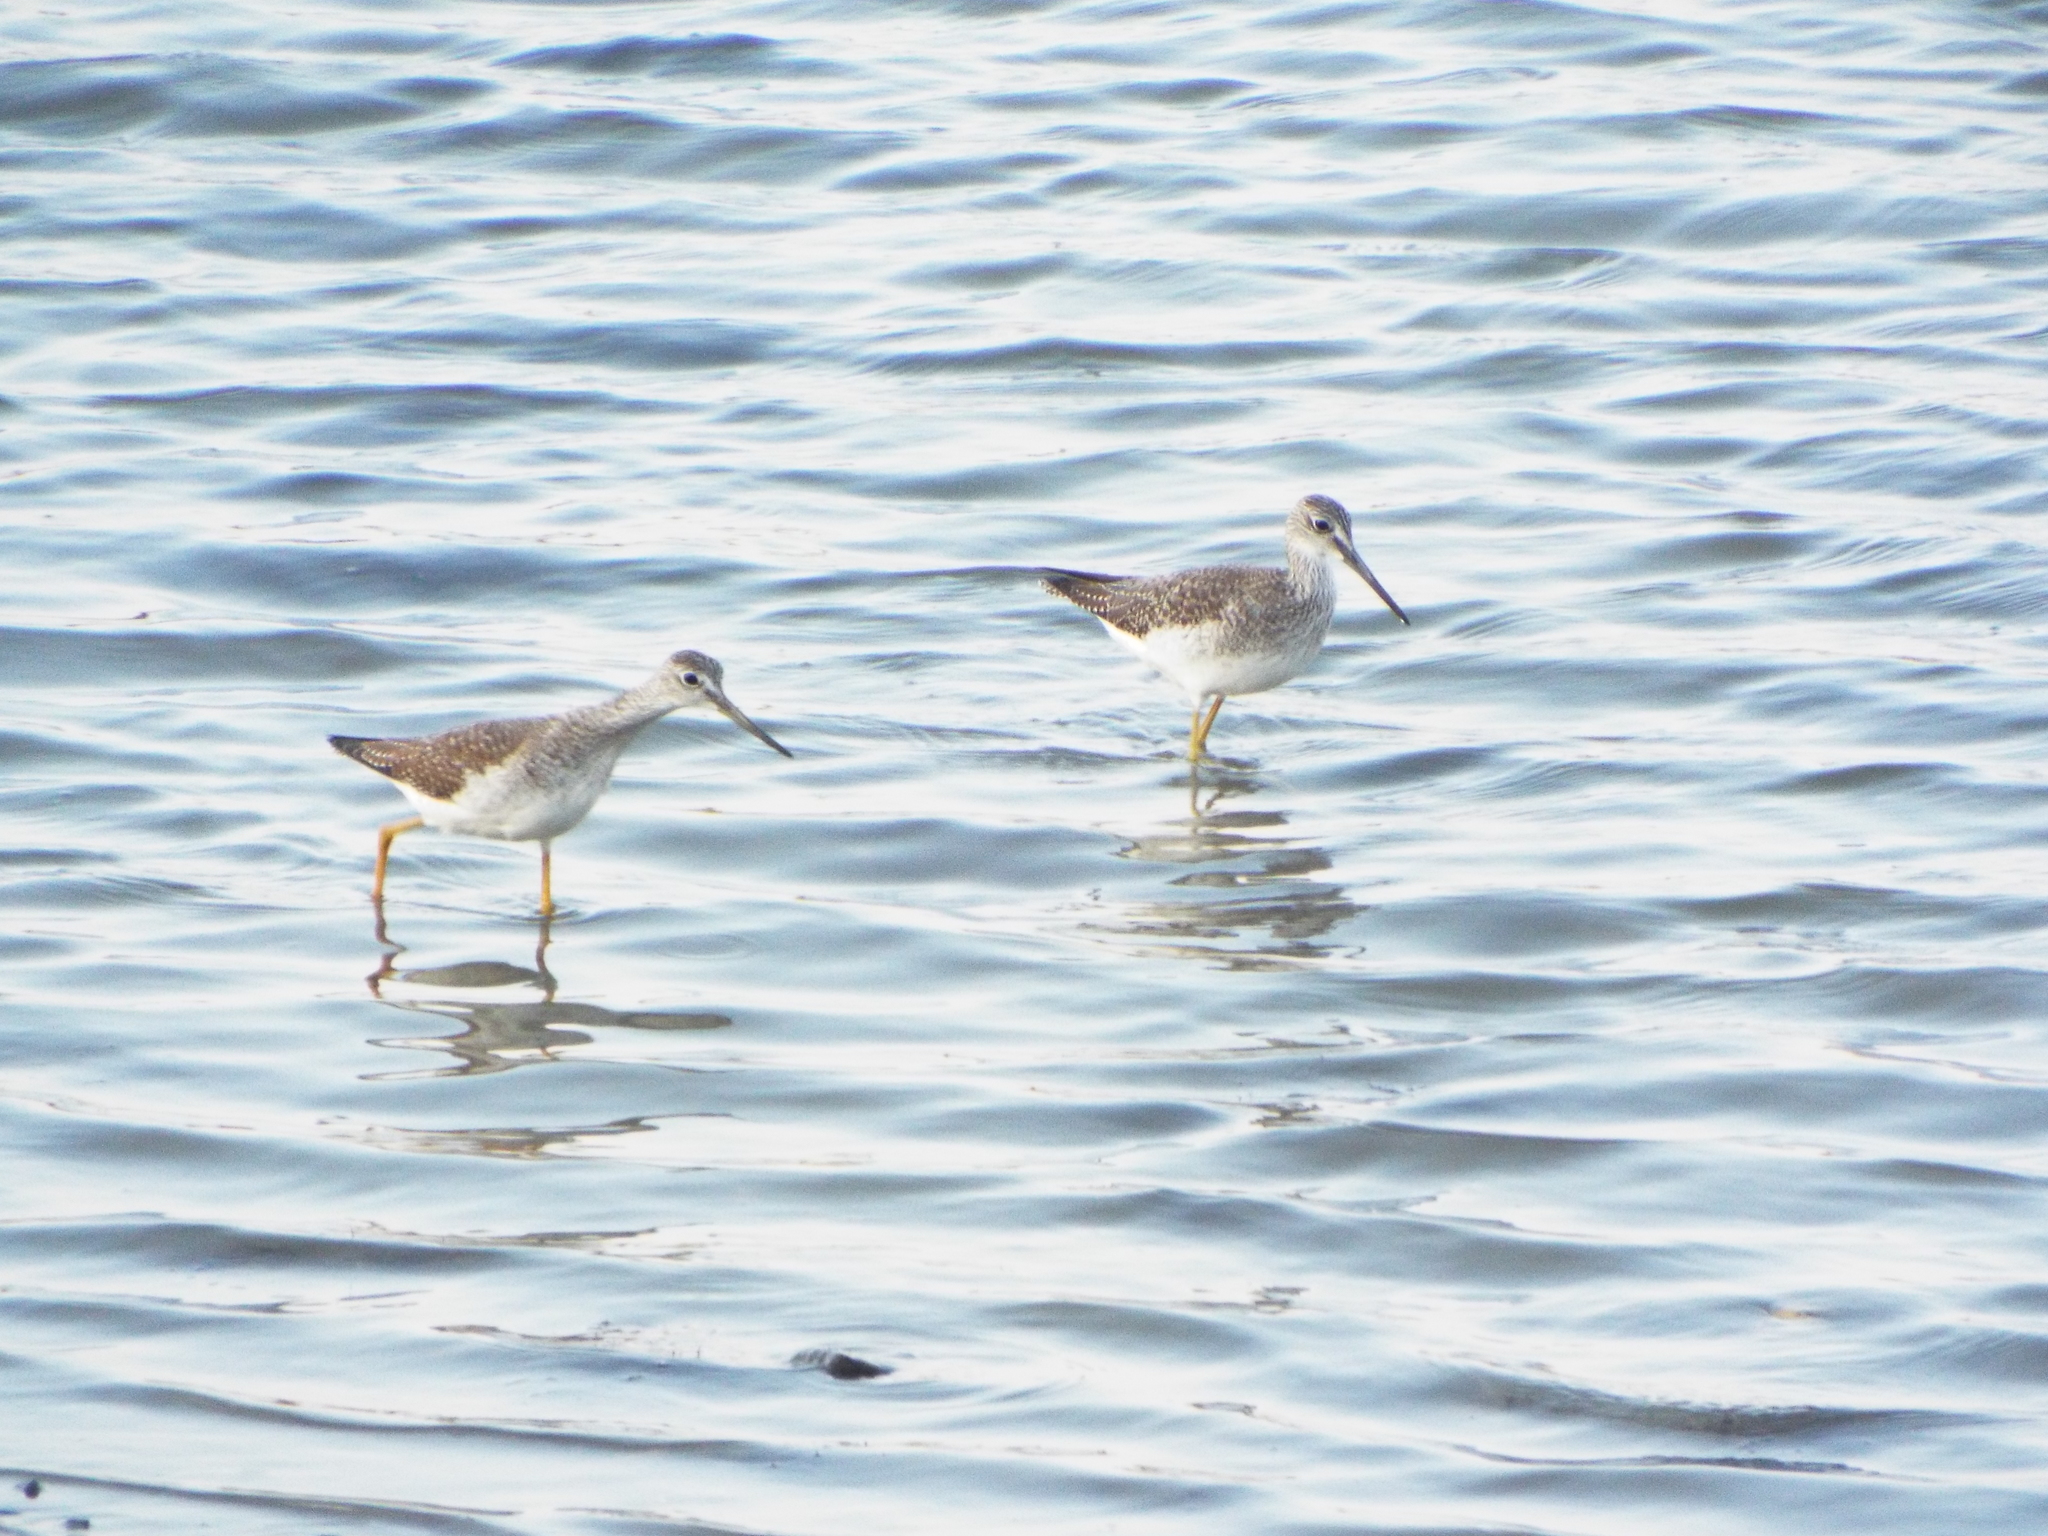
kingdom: Animalia
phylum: Chordata
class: Aves
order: Charadriiformes
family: Scolopacidae
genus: Tringa
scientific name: Tringa melanoleuca
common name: Greater yellowlegs
